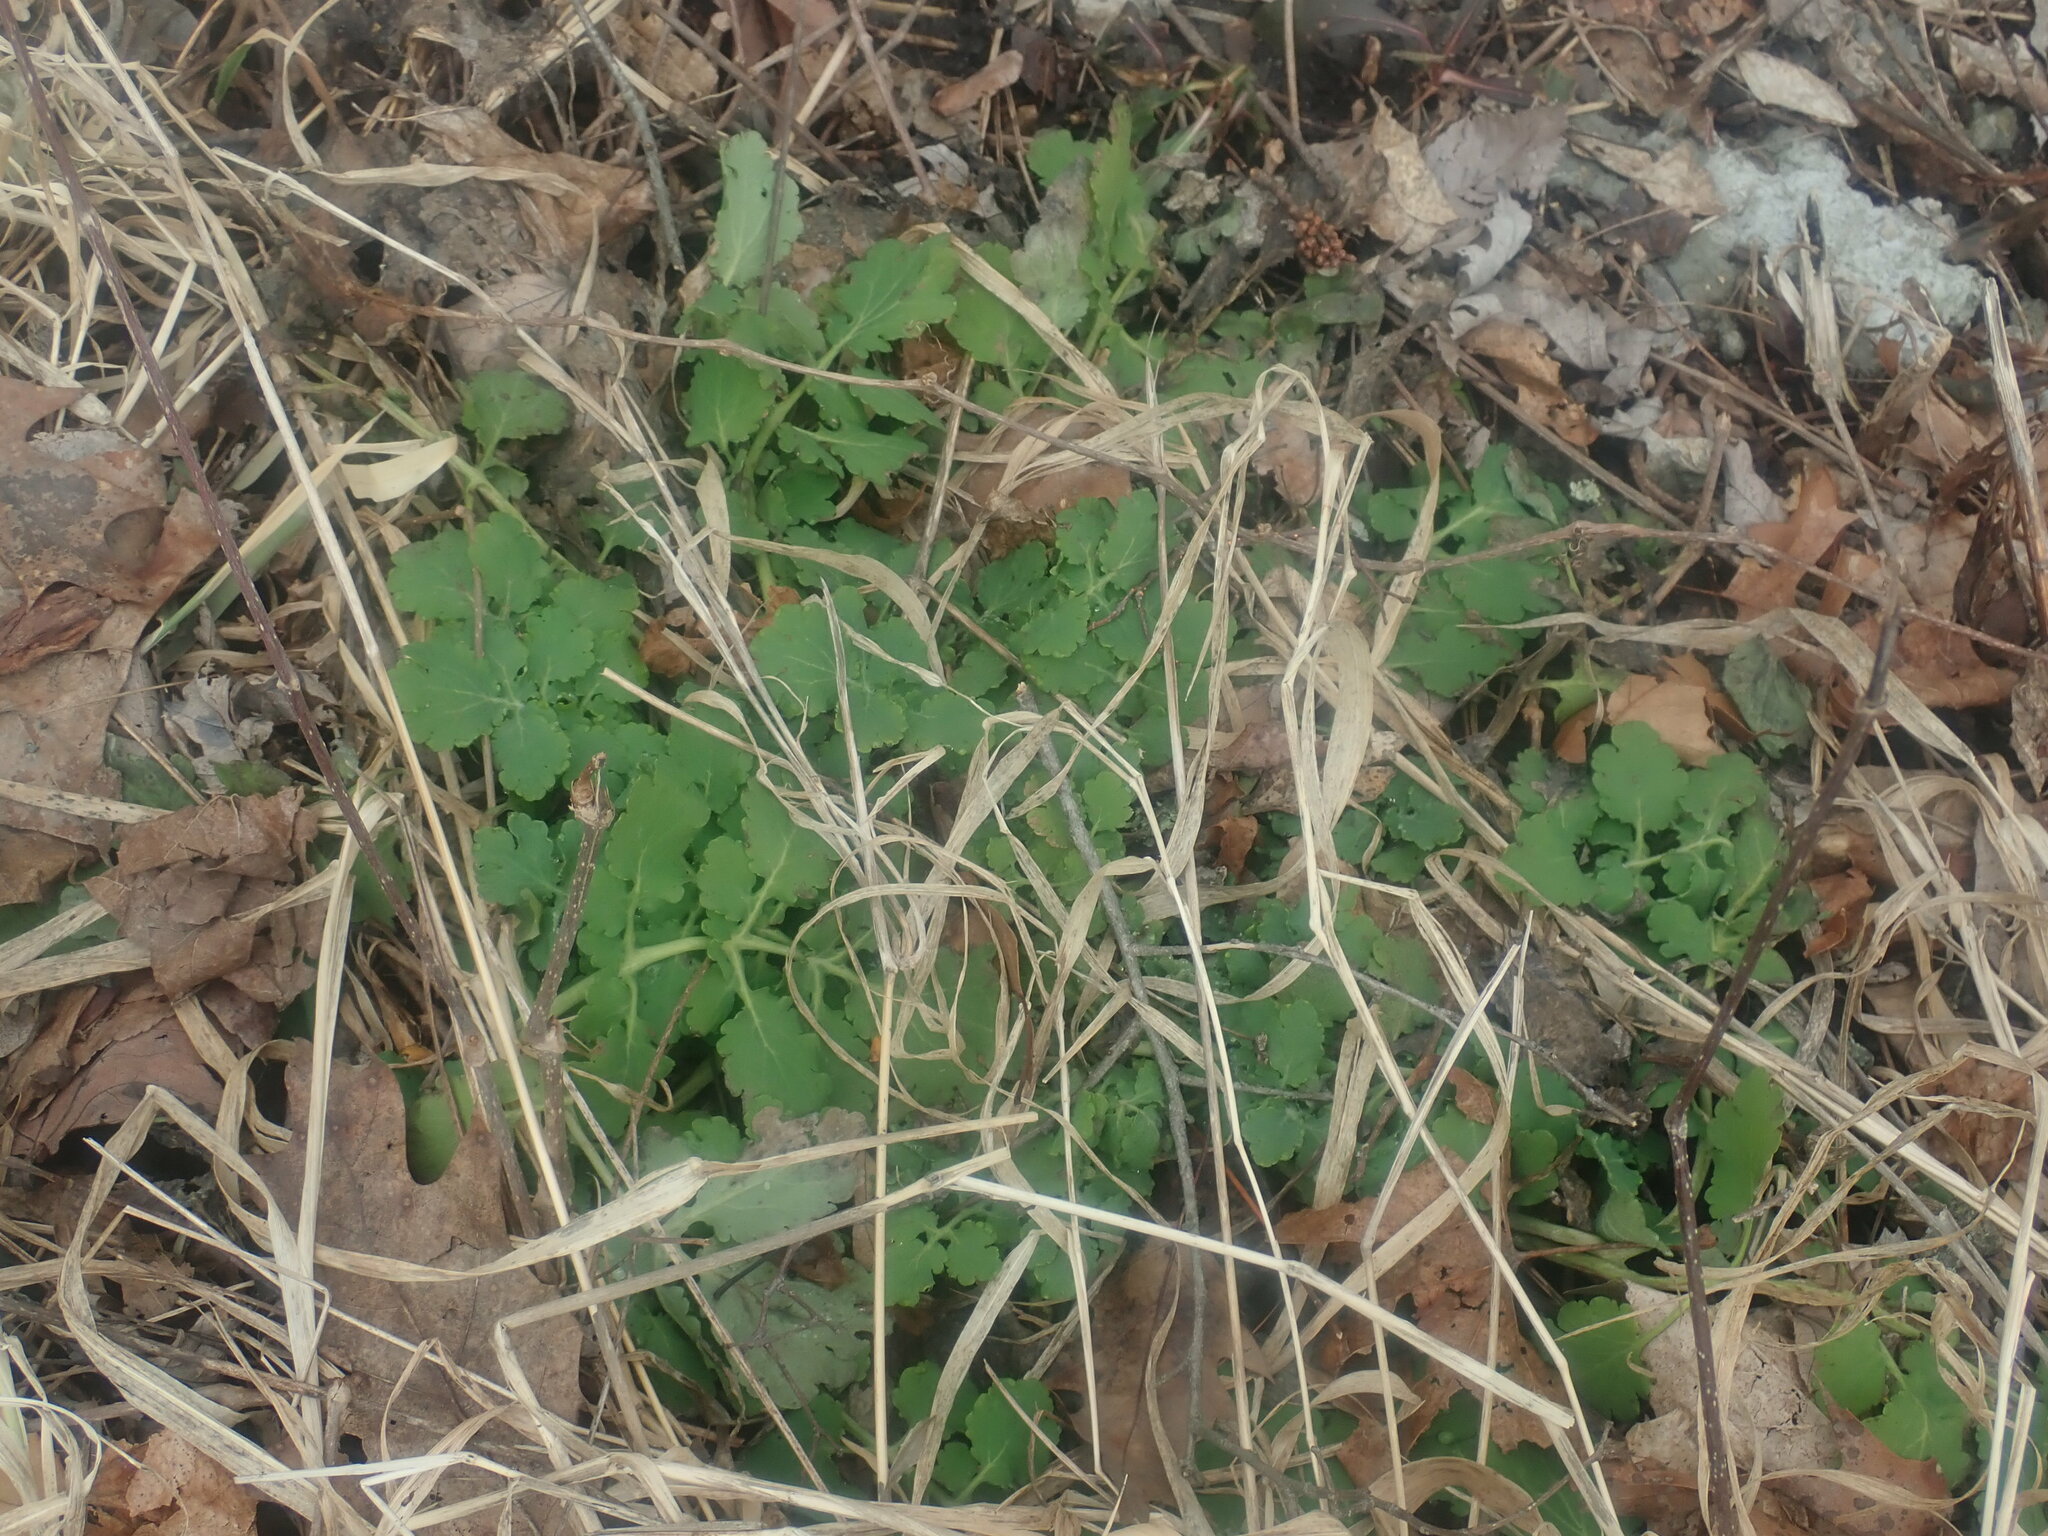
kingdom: Plantae
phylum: Tracheophyta
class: Magnoliopsida
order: Ranunculales
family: Papaveraceae
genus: Chelidonium
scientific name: Chelidonium majus
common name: Greater celandine
